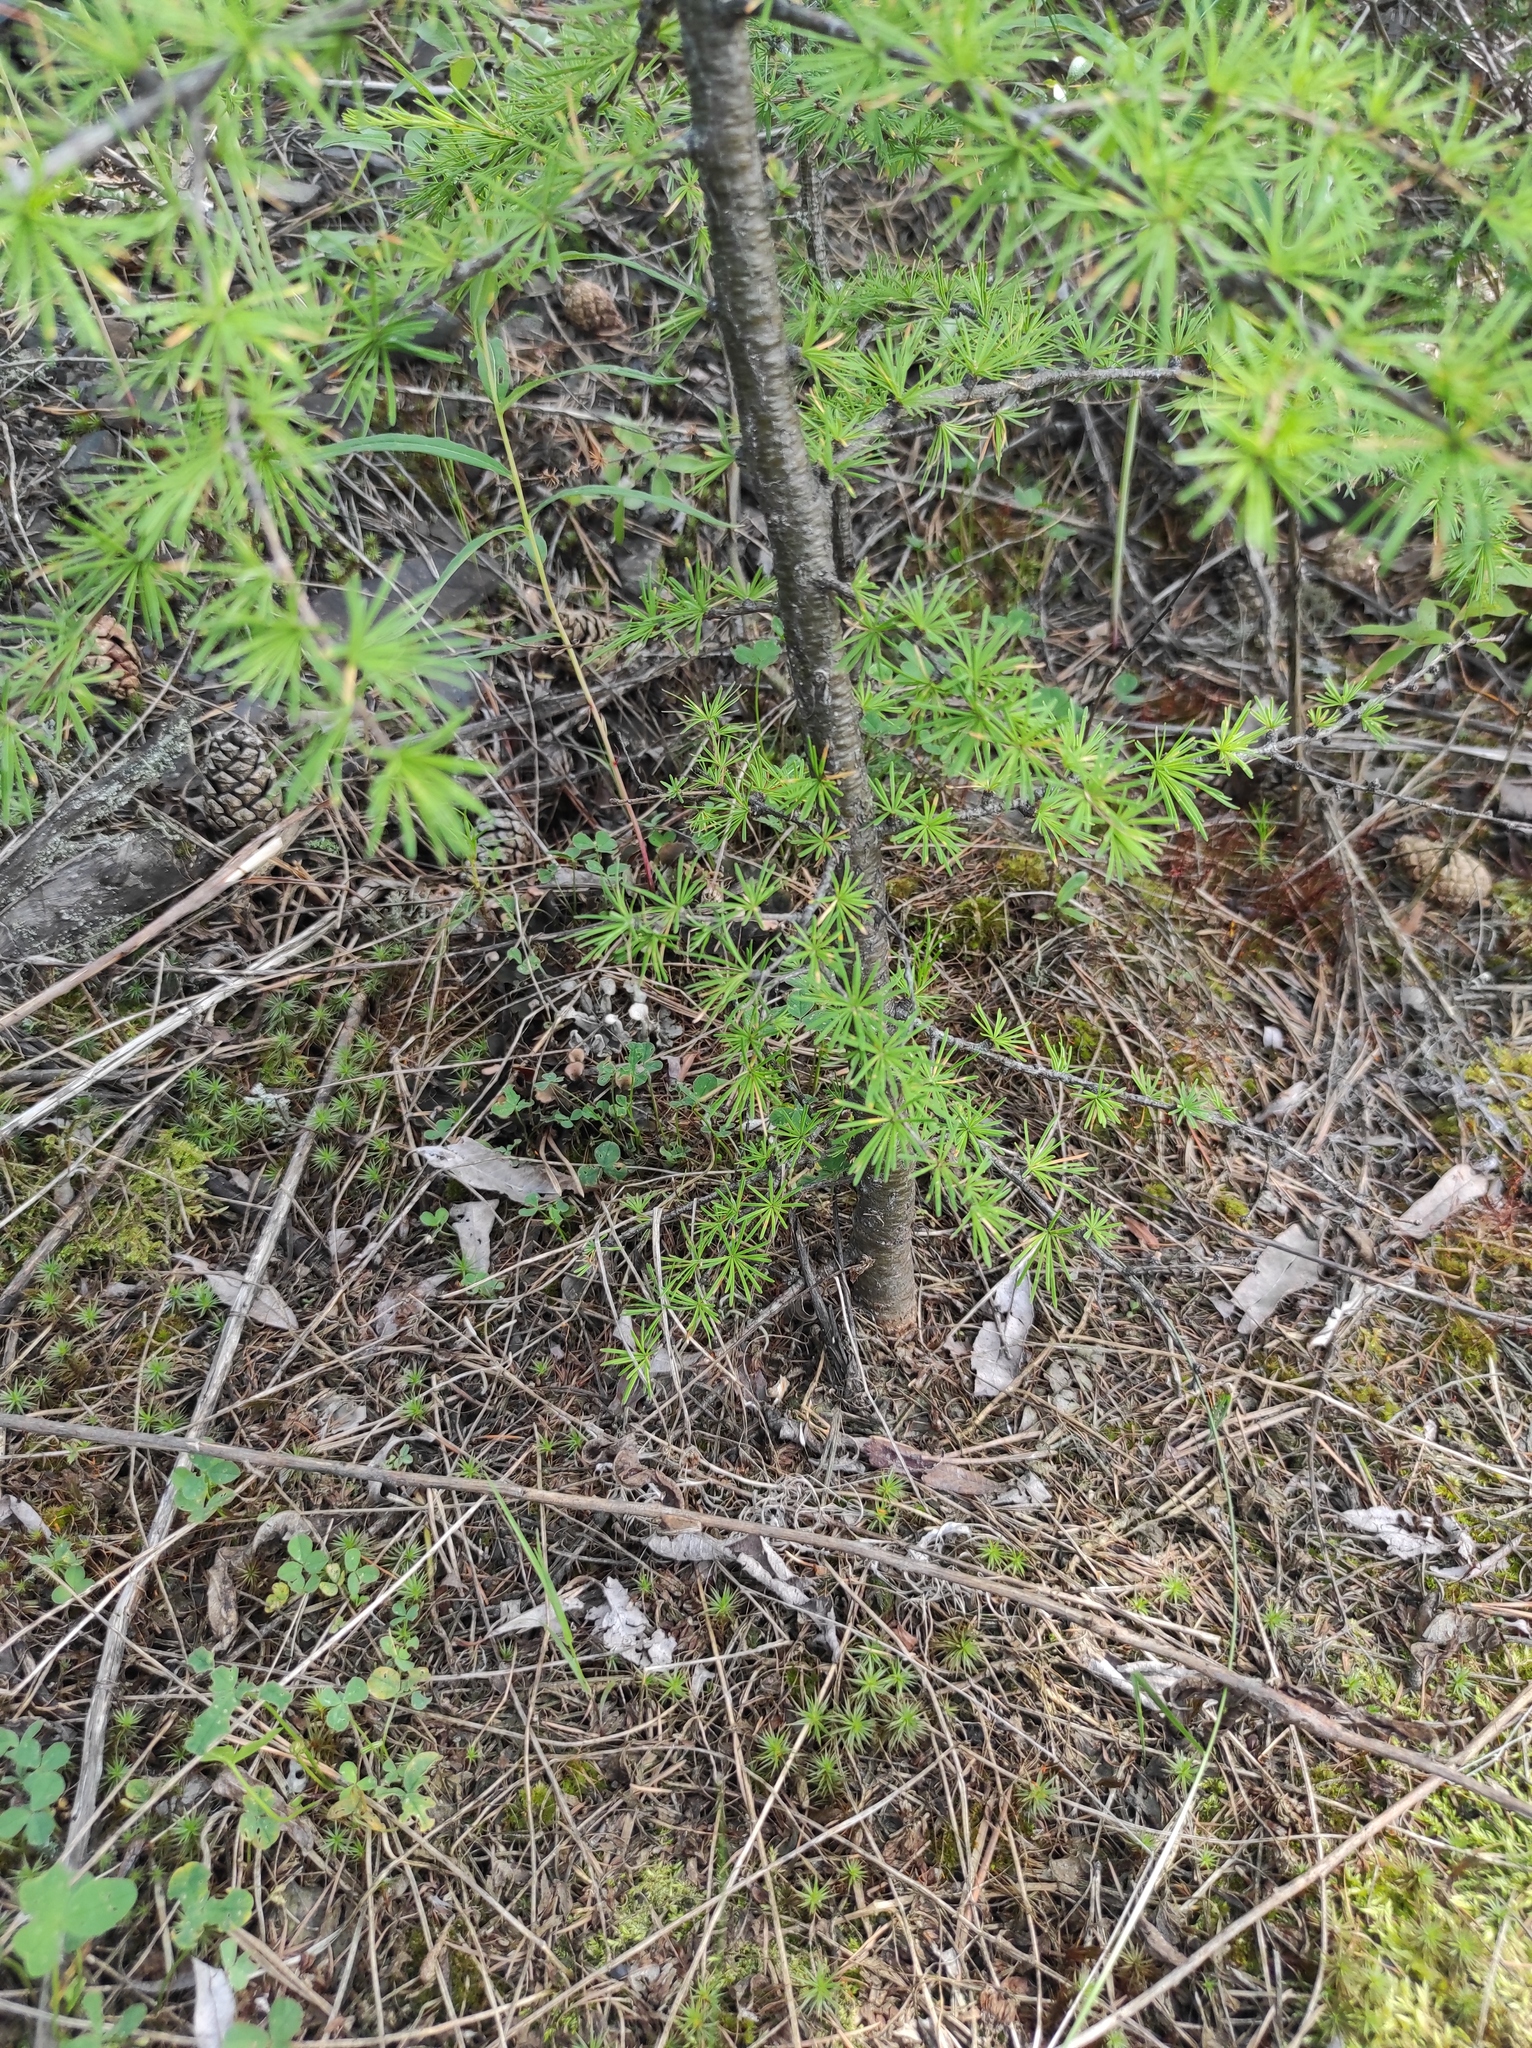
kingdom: Plantae
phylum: Tracheophyta
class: Pinopsida
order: Pinales
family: Pinaceae
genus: Larix
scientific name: Larix gmelinii
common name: Dahurian larch
